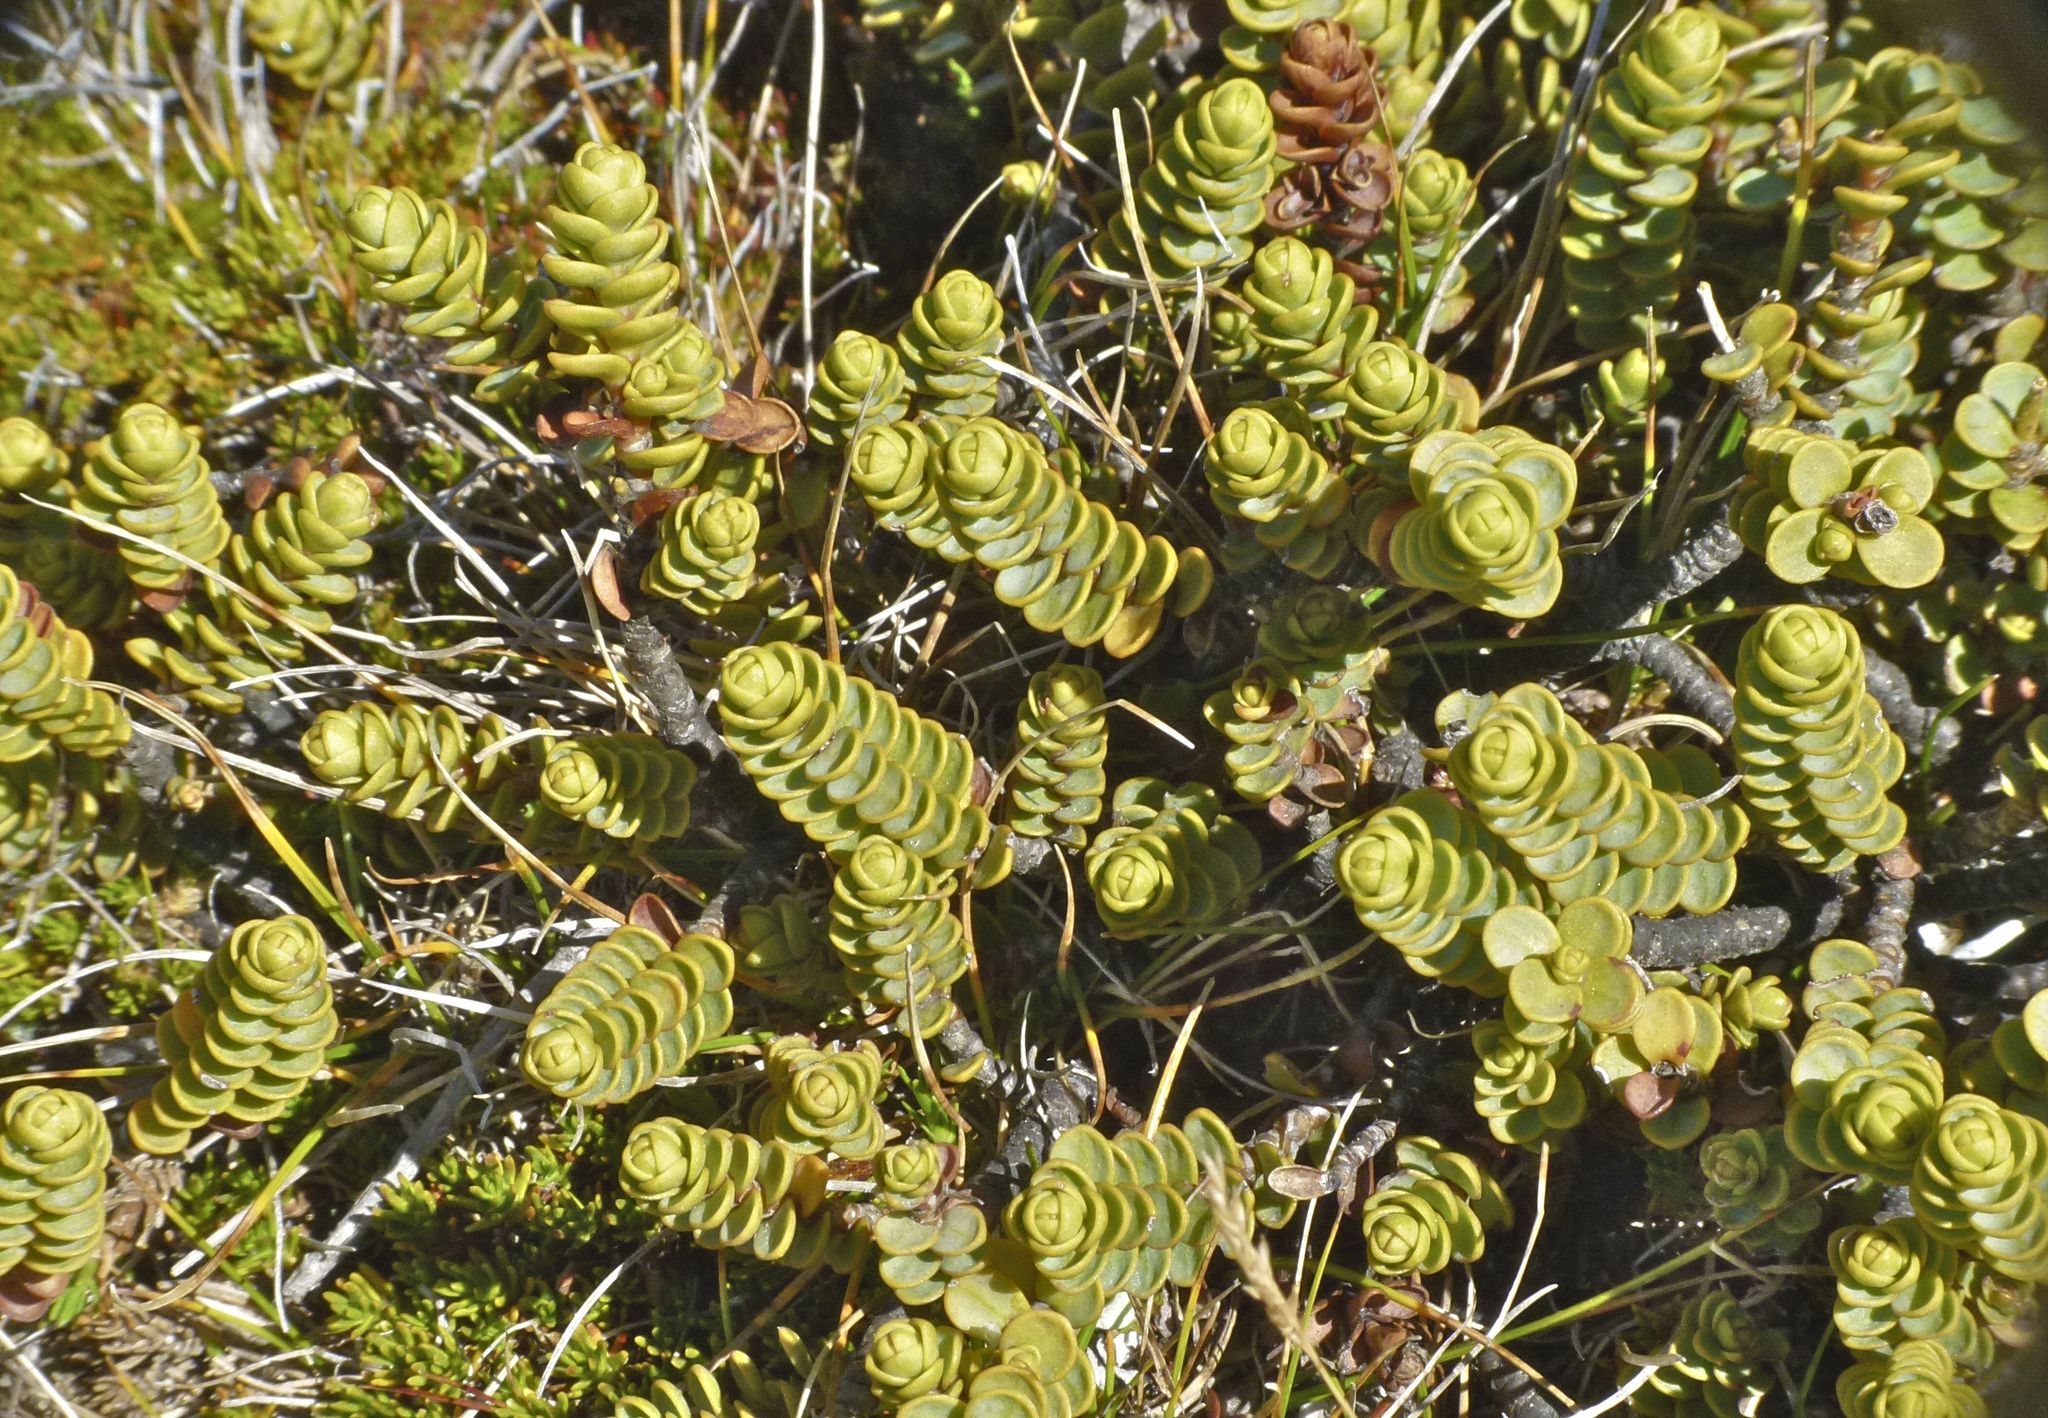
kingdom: Plantae
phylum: Tracheophyta
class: Magnoliopsida
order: Lamiales
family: Plantaginaceae
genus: Veronica
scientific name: Veronica buchananii
